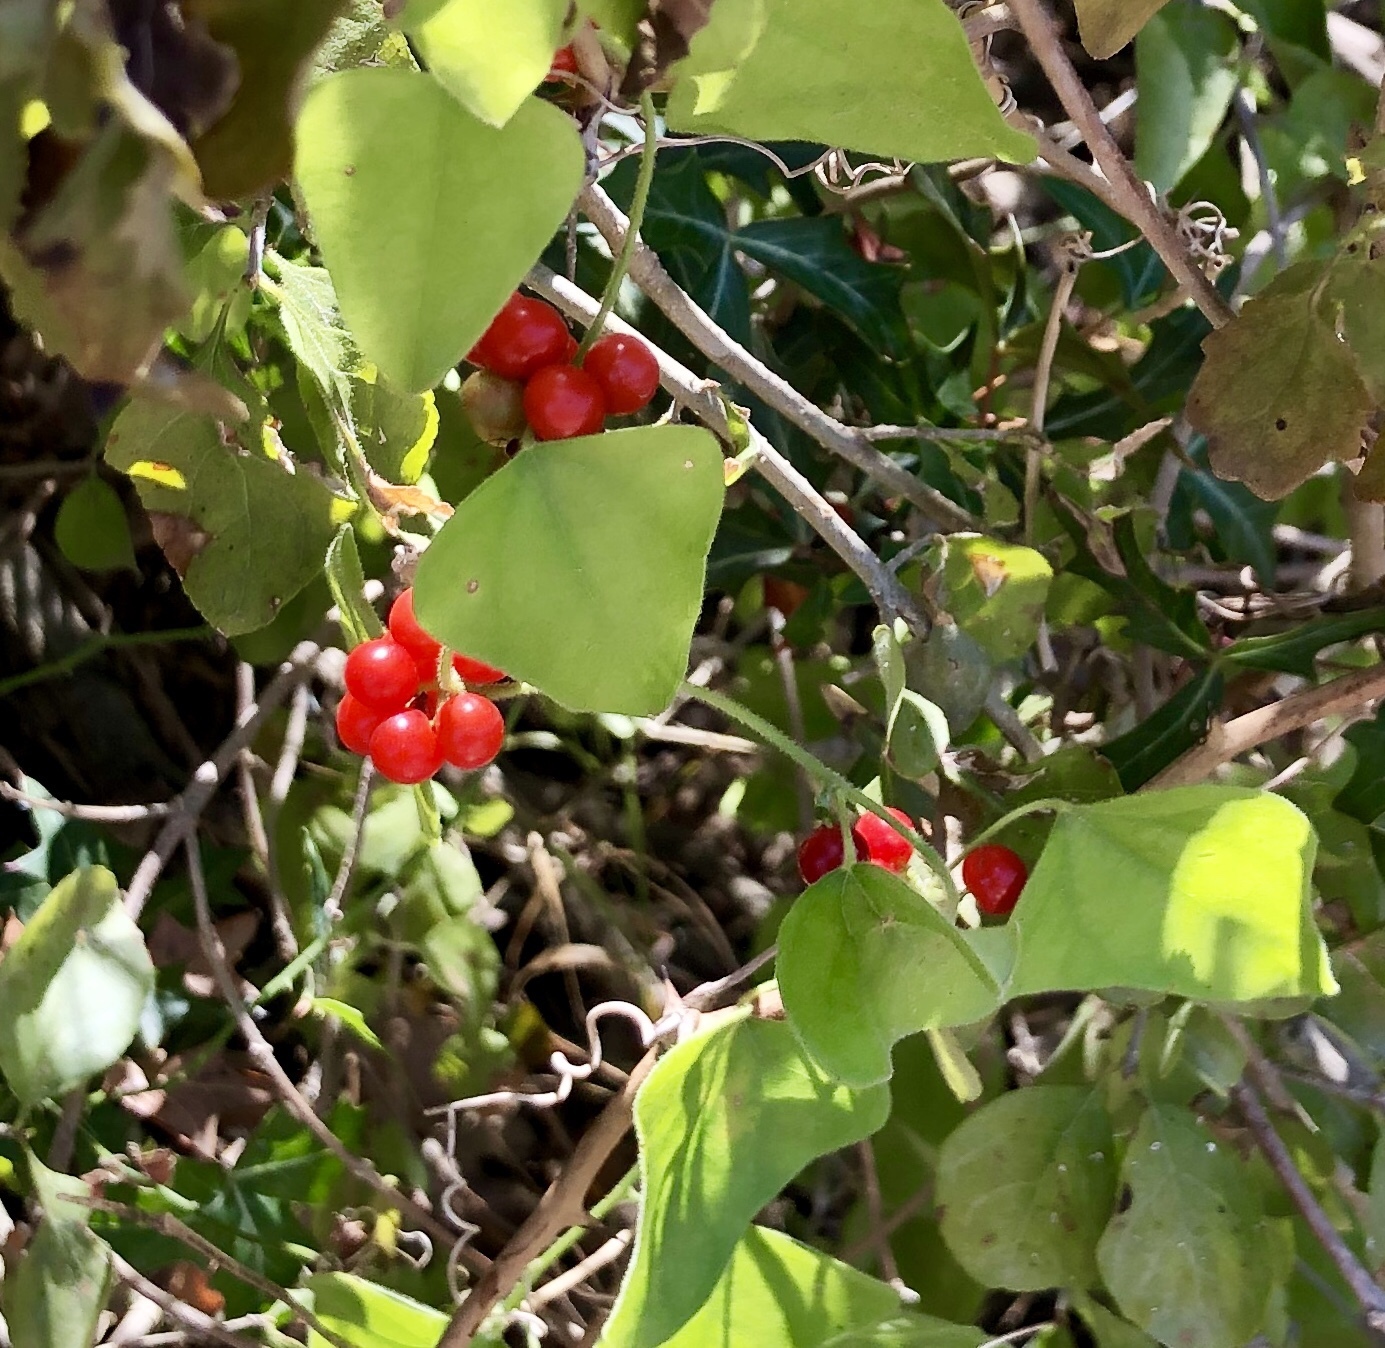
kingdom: Plantae
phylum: Tracheophyta
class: Magnoliopsida
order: Ranunculales
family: Menispermaceae
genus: Cocculus
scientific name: Cocculus carolinus
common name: Carolina moonseed
